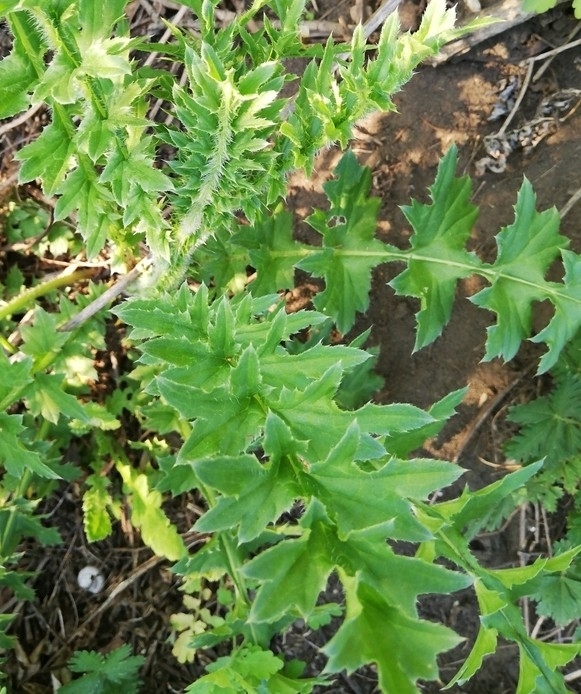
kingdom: Plantae
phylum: Tracheophyta
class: Magnoliopsida
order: Asterales
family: Asteraceae
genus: Carduus
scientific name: Carduus acanthoides
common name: Plumeless thistle
